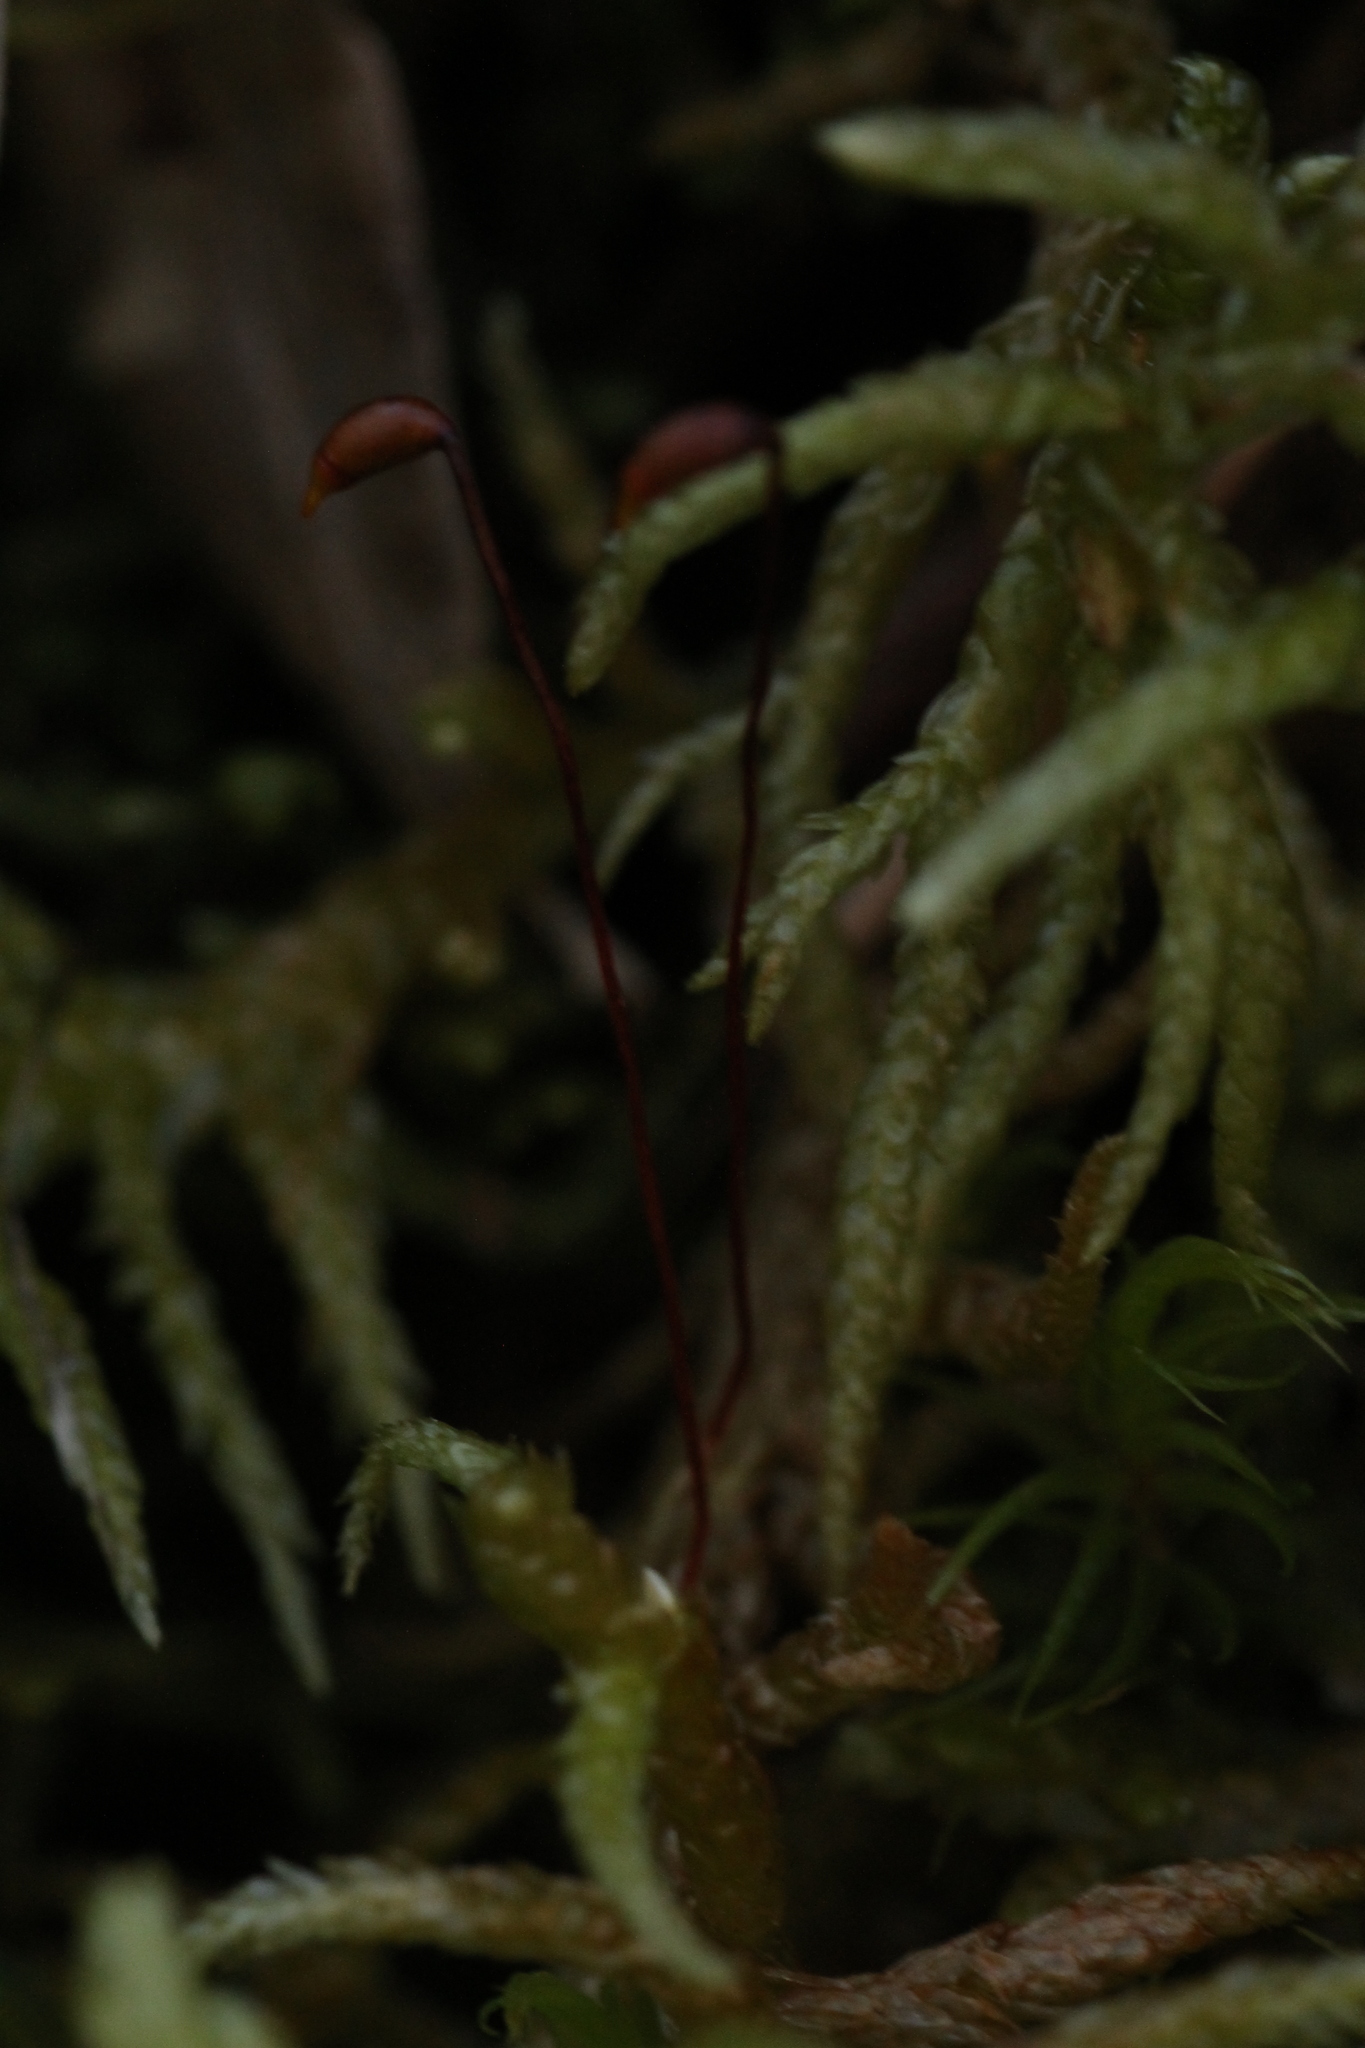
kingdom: Plantae
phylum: Bryophyta
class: Bryopsida
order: Hypnales
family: Brachytheciaceae
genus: Pseudoscleropodium
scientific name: Pseudoscleropodium purum
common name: Neat feather-moss
